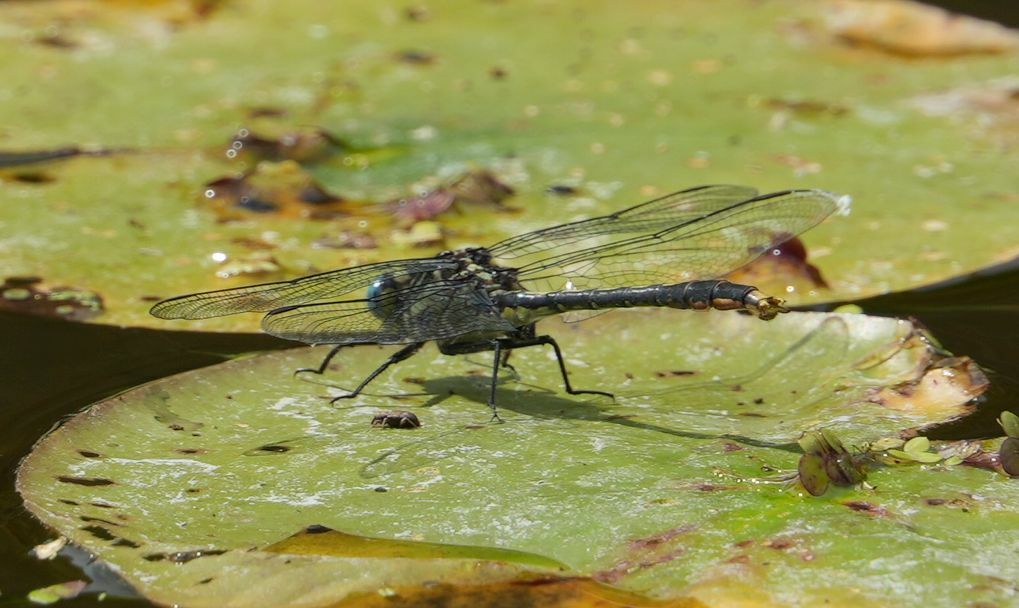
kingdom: Animalia
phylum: Arthropoda
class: Insecta
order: Odonata
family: Gomphidae
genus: Arigomphus
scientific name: Arigomphus furcifer
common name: Lilypad clubtail
